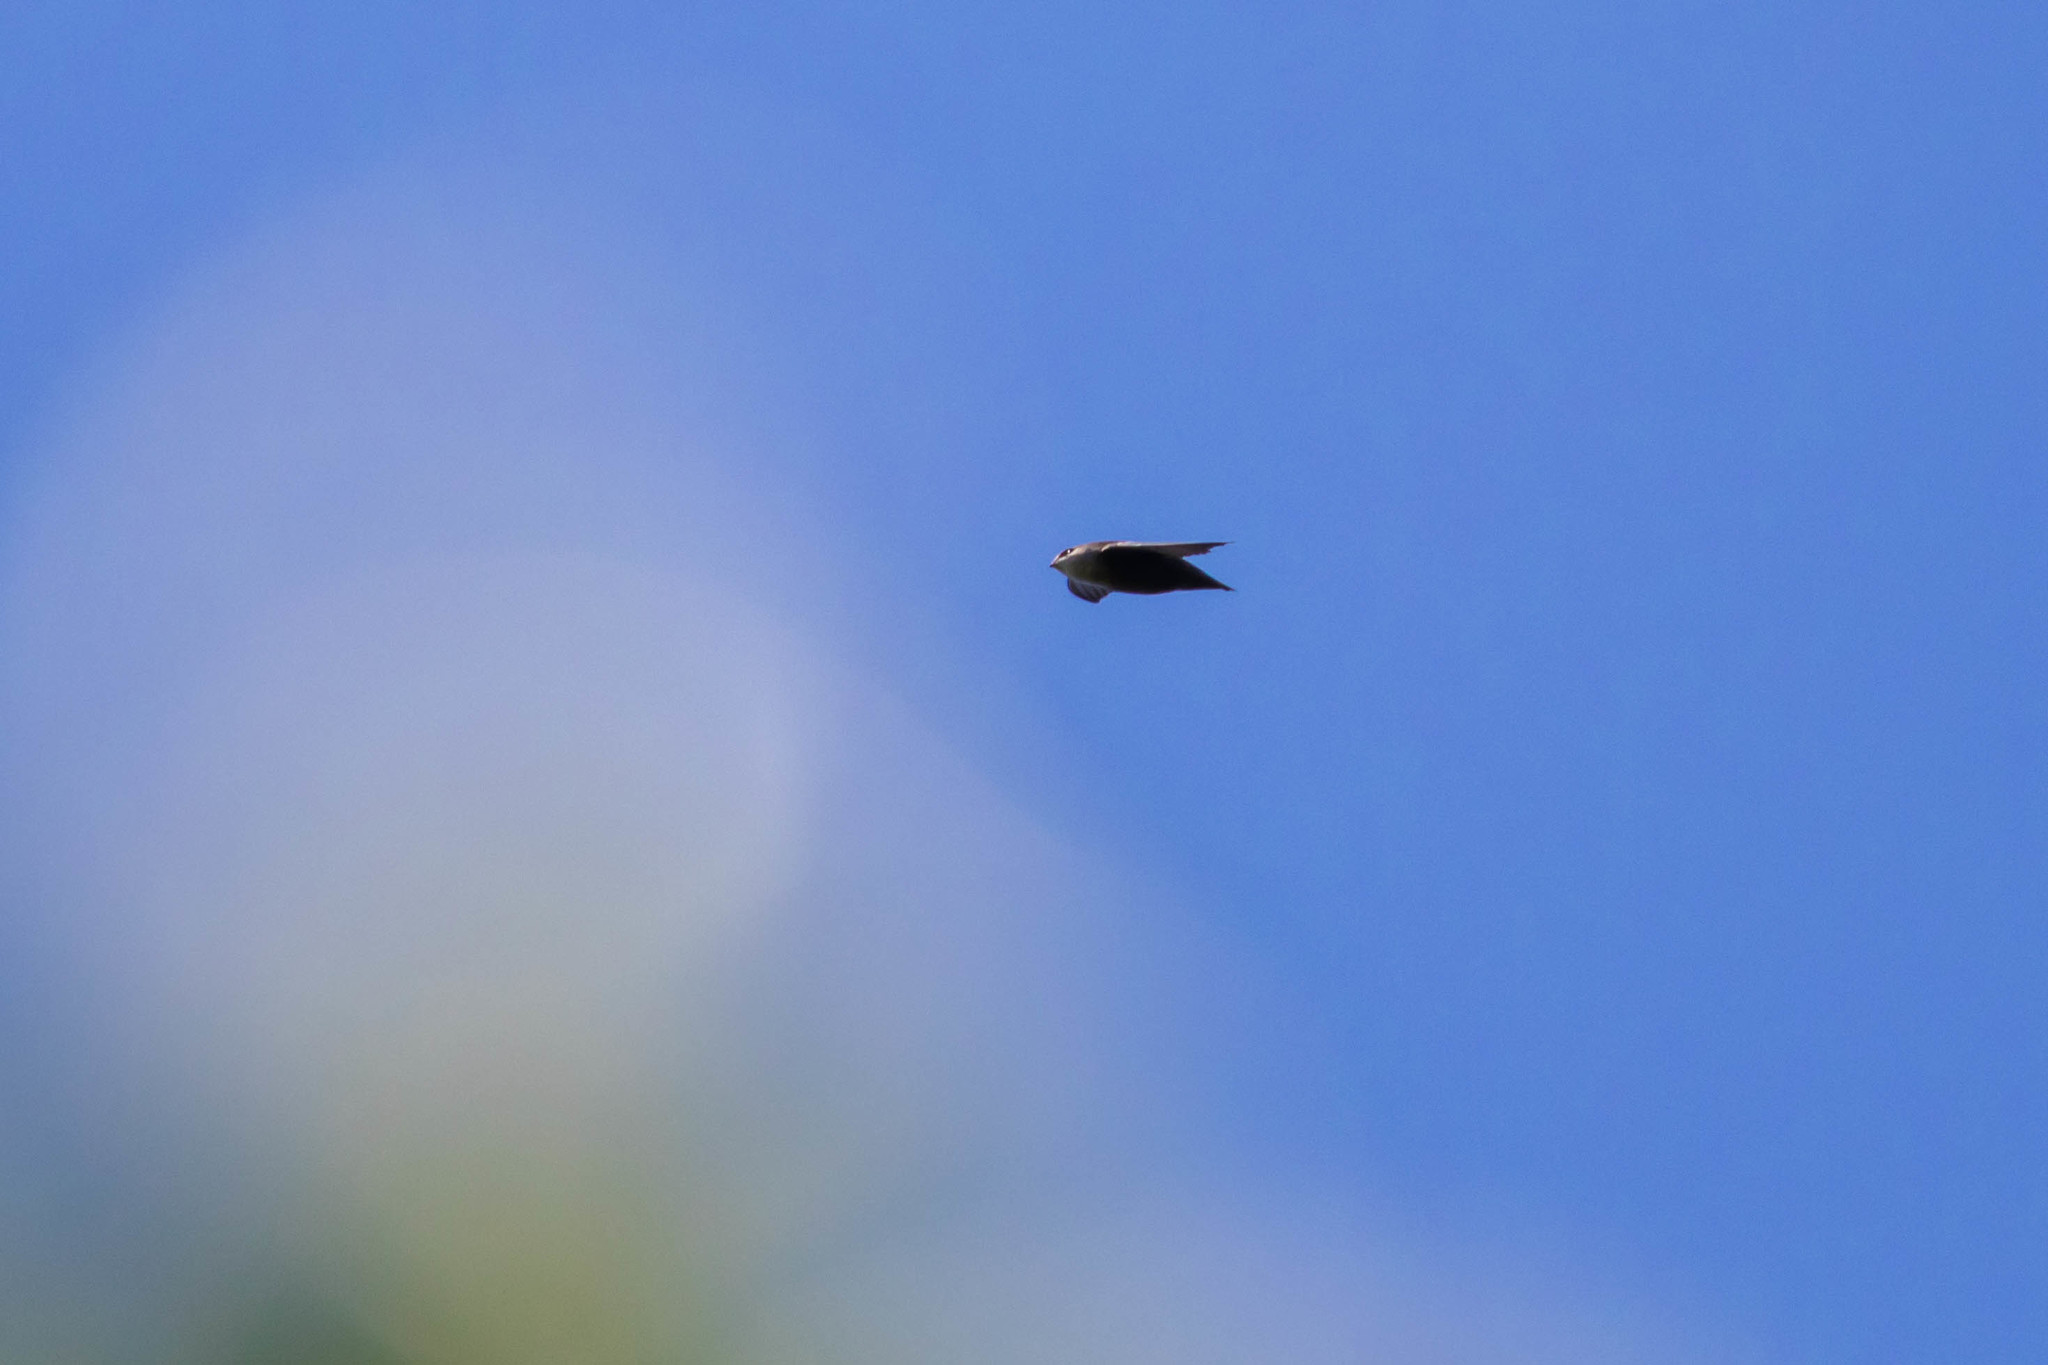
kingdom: Animalia
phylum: Chordata
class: Aves
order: Apodiformes
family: Apodidae
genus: Chaetura
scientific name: Chaetura pelagica
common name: Chimney swift
